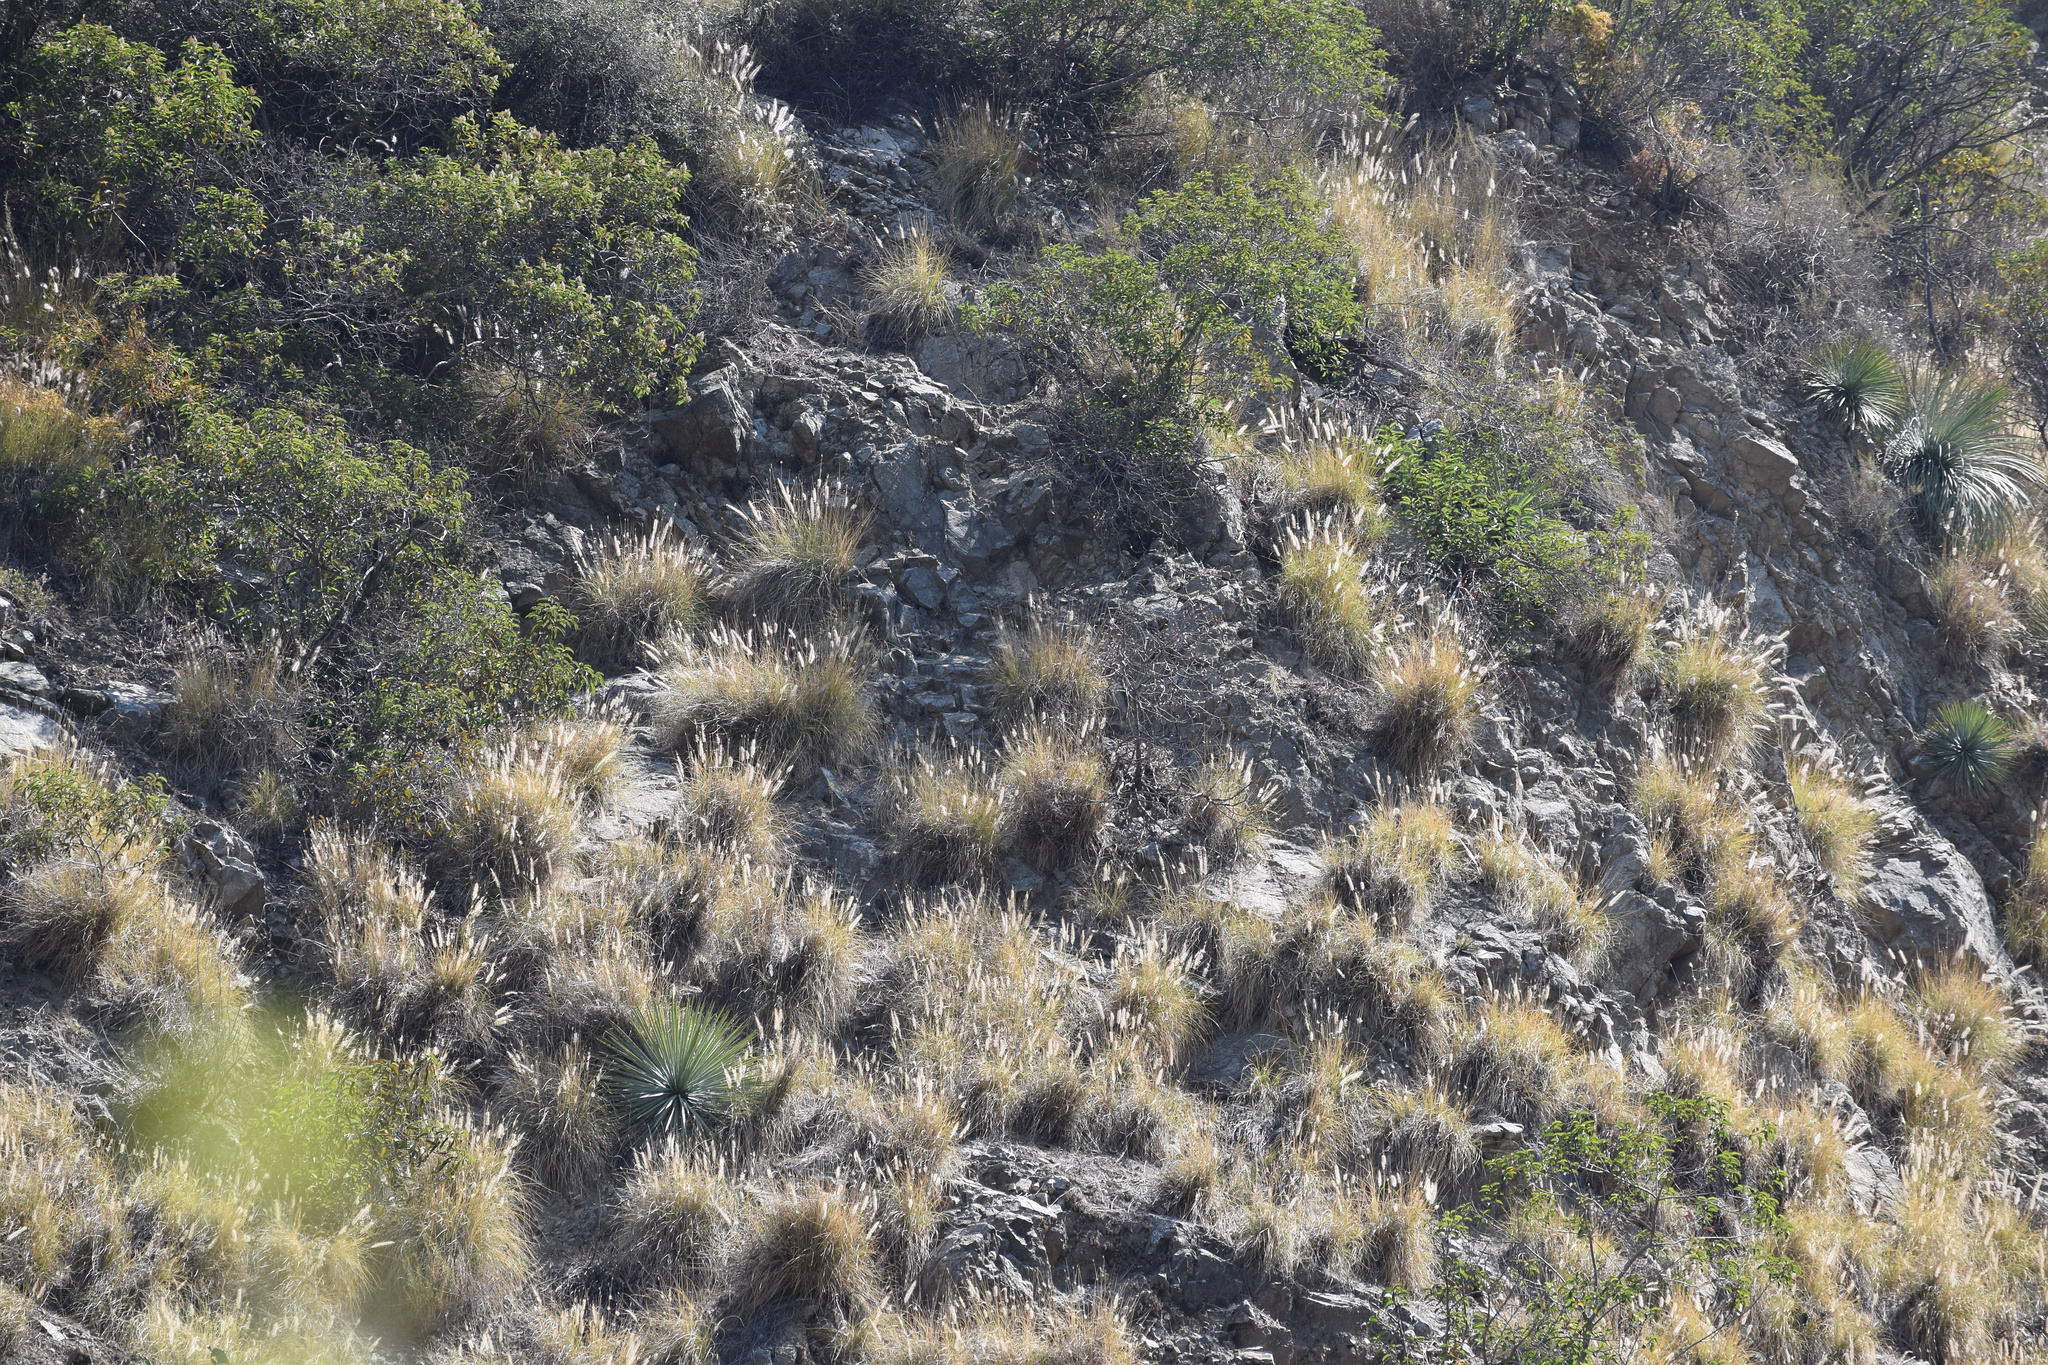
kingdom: Plantae
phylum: Tracheophyta
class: Liliopsida
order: Poales
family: Poaceae
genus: Cenchrus
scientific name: Cenchrus setaceus
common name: Crimson fountaingrass
